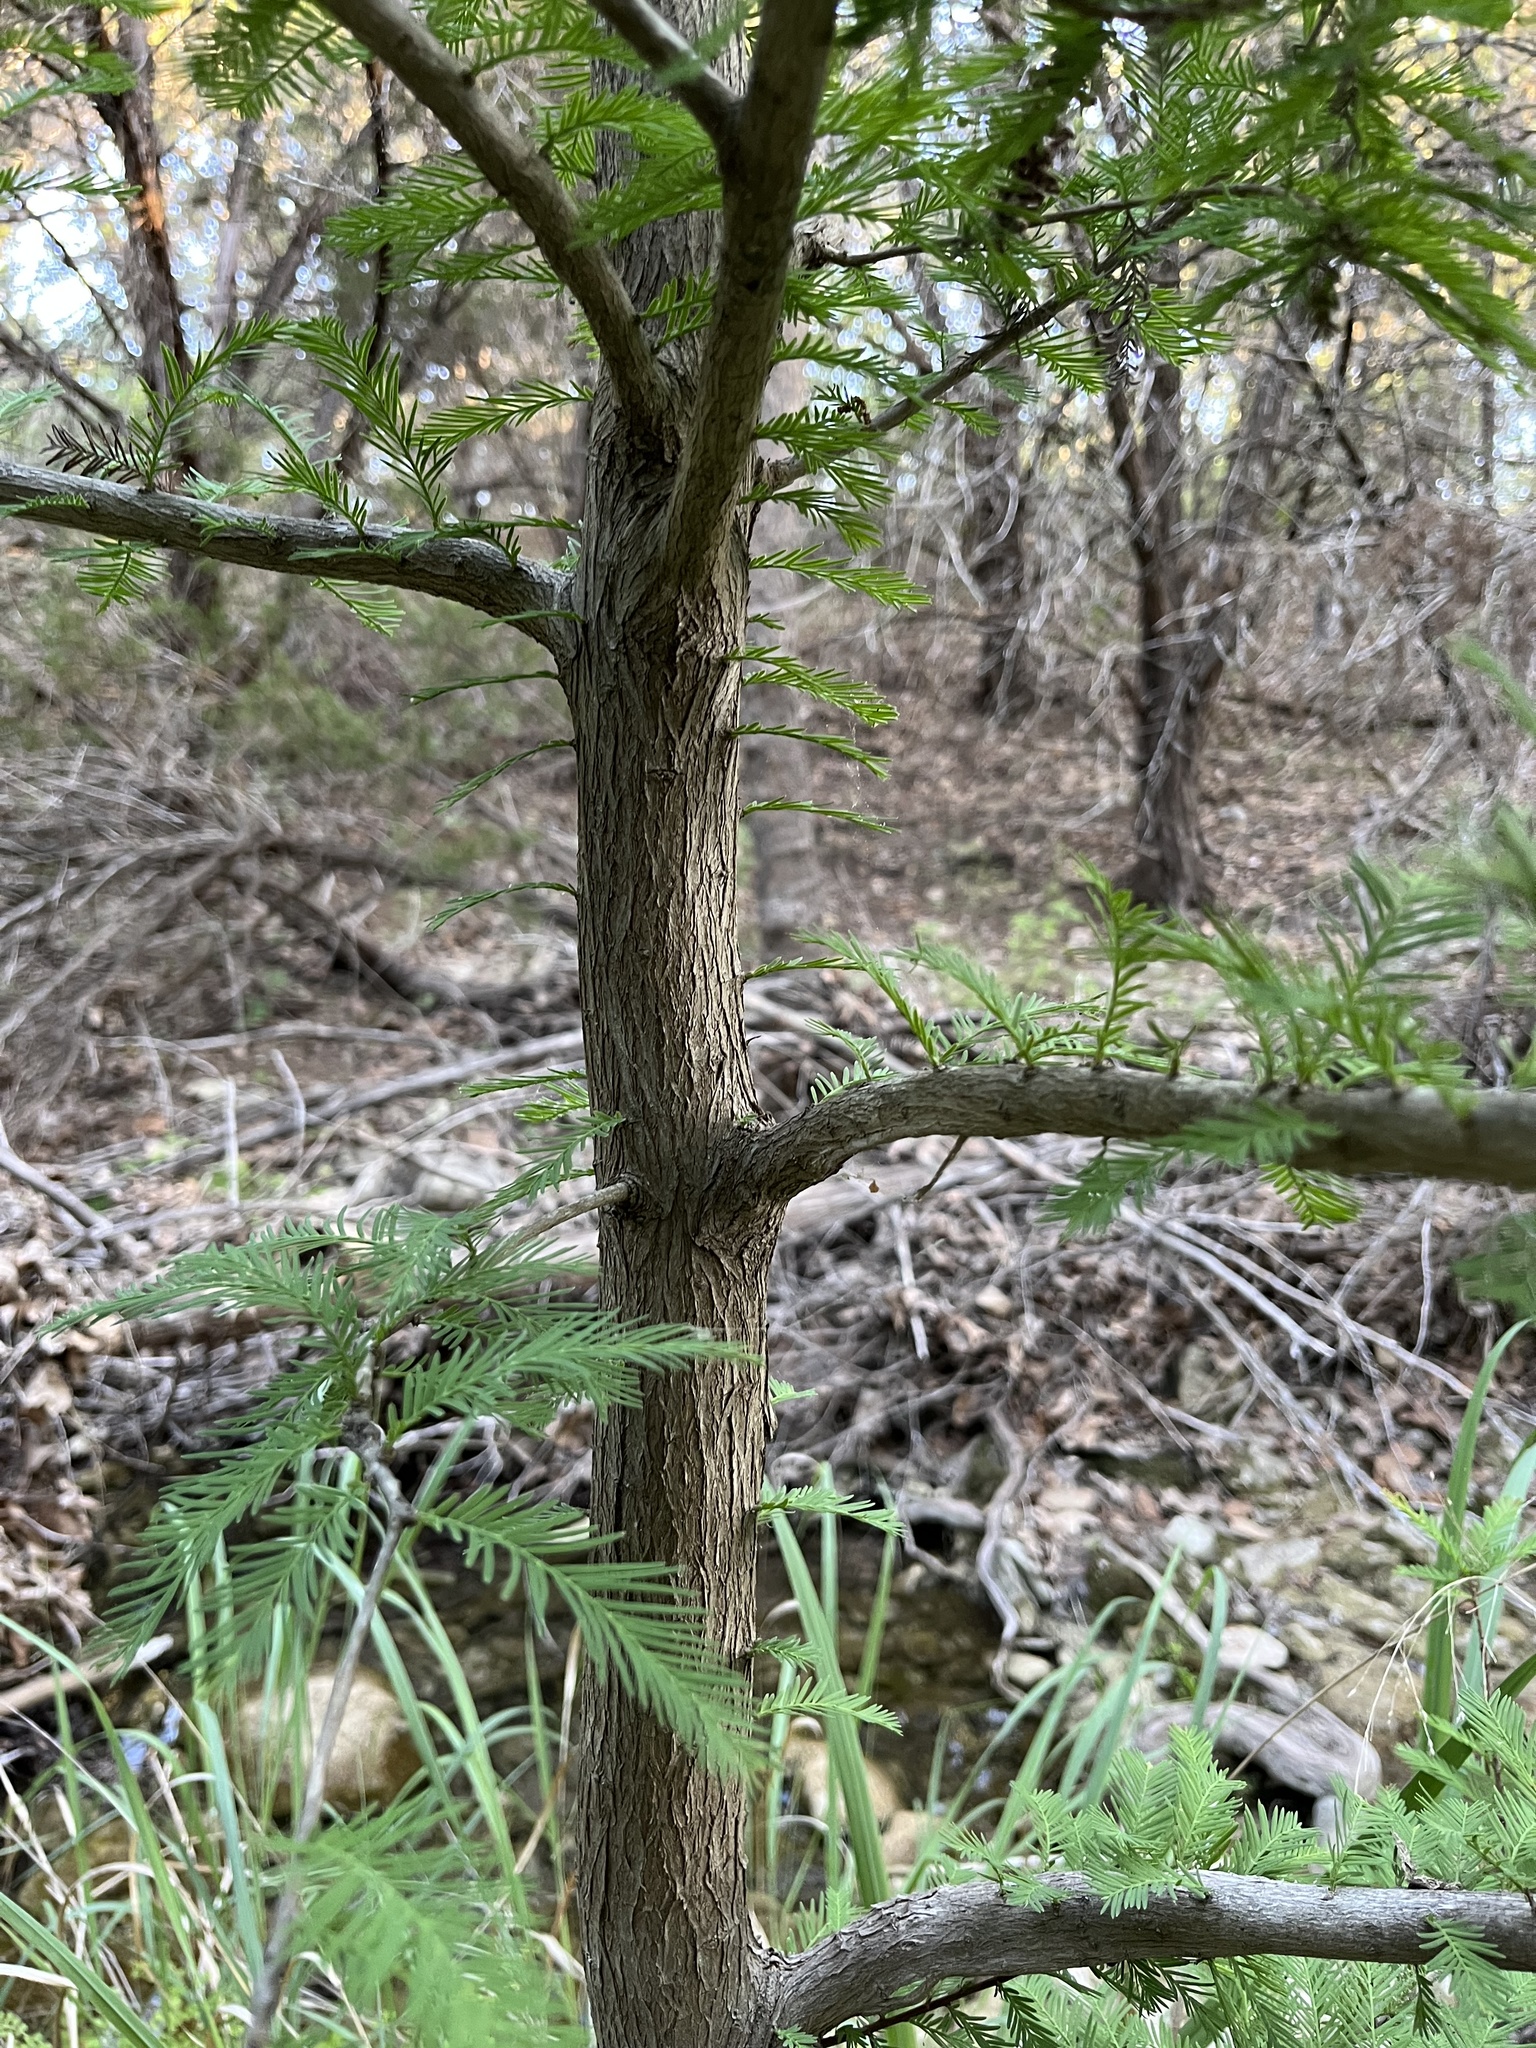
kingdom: Plantae
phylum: Tracheophyta
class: Pinopsida
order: Pinales
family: Cupressaceae
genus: Taxodium
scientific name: Taxodium distichum
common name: Bald cypress
